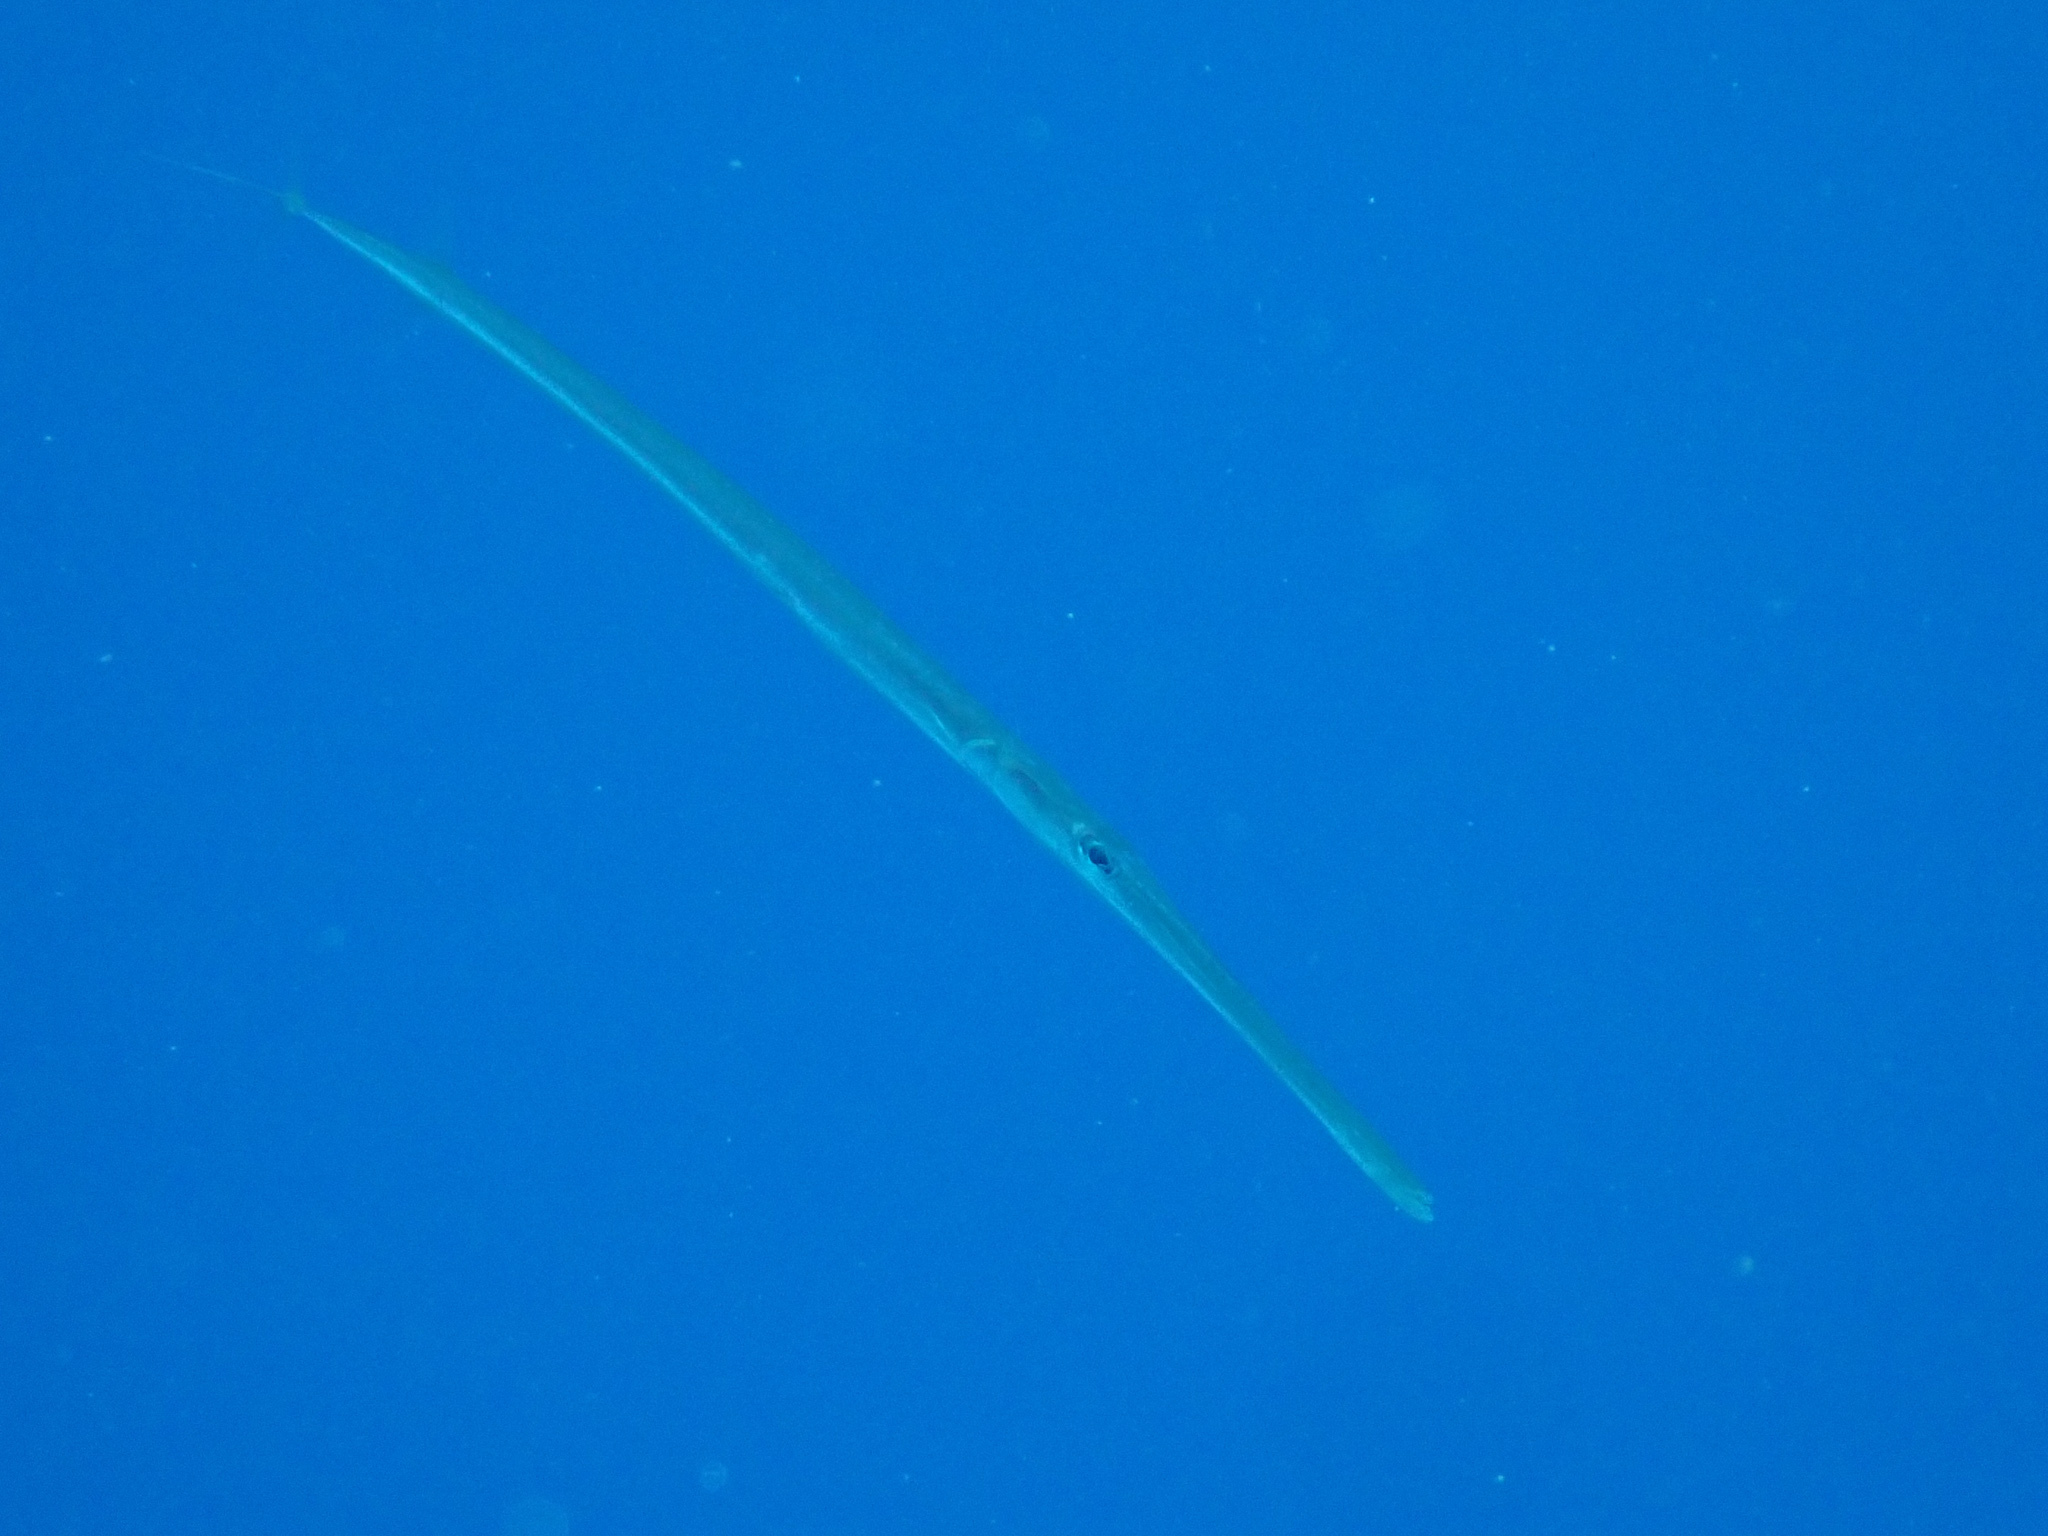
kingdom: Animalia
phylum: Chordata
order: Syngnathiformes
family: Fistulariidae
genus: Fistularia
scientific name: Fistularia commersonii
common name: Bluespotted cornetfish
